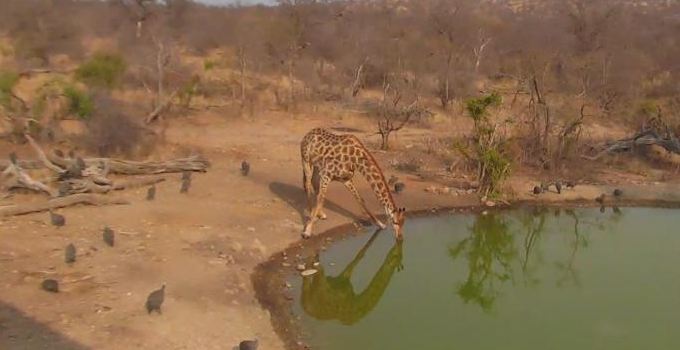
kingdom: Animalia
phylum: Chordata
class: Aves
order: Galliformes
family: Numididae
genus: Numida
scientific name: Numida meleagris
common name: Helmeted guineafowl
